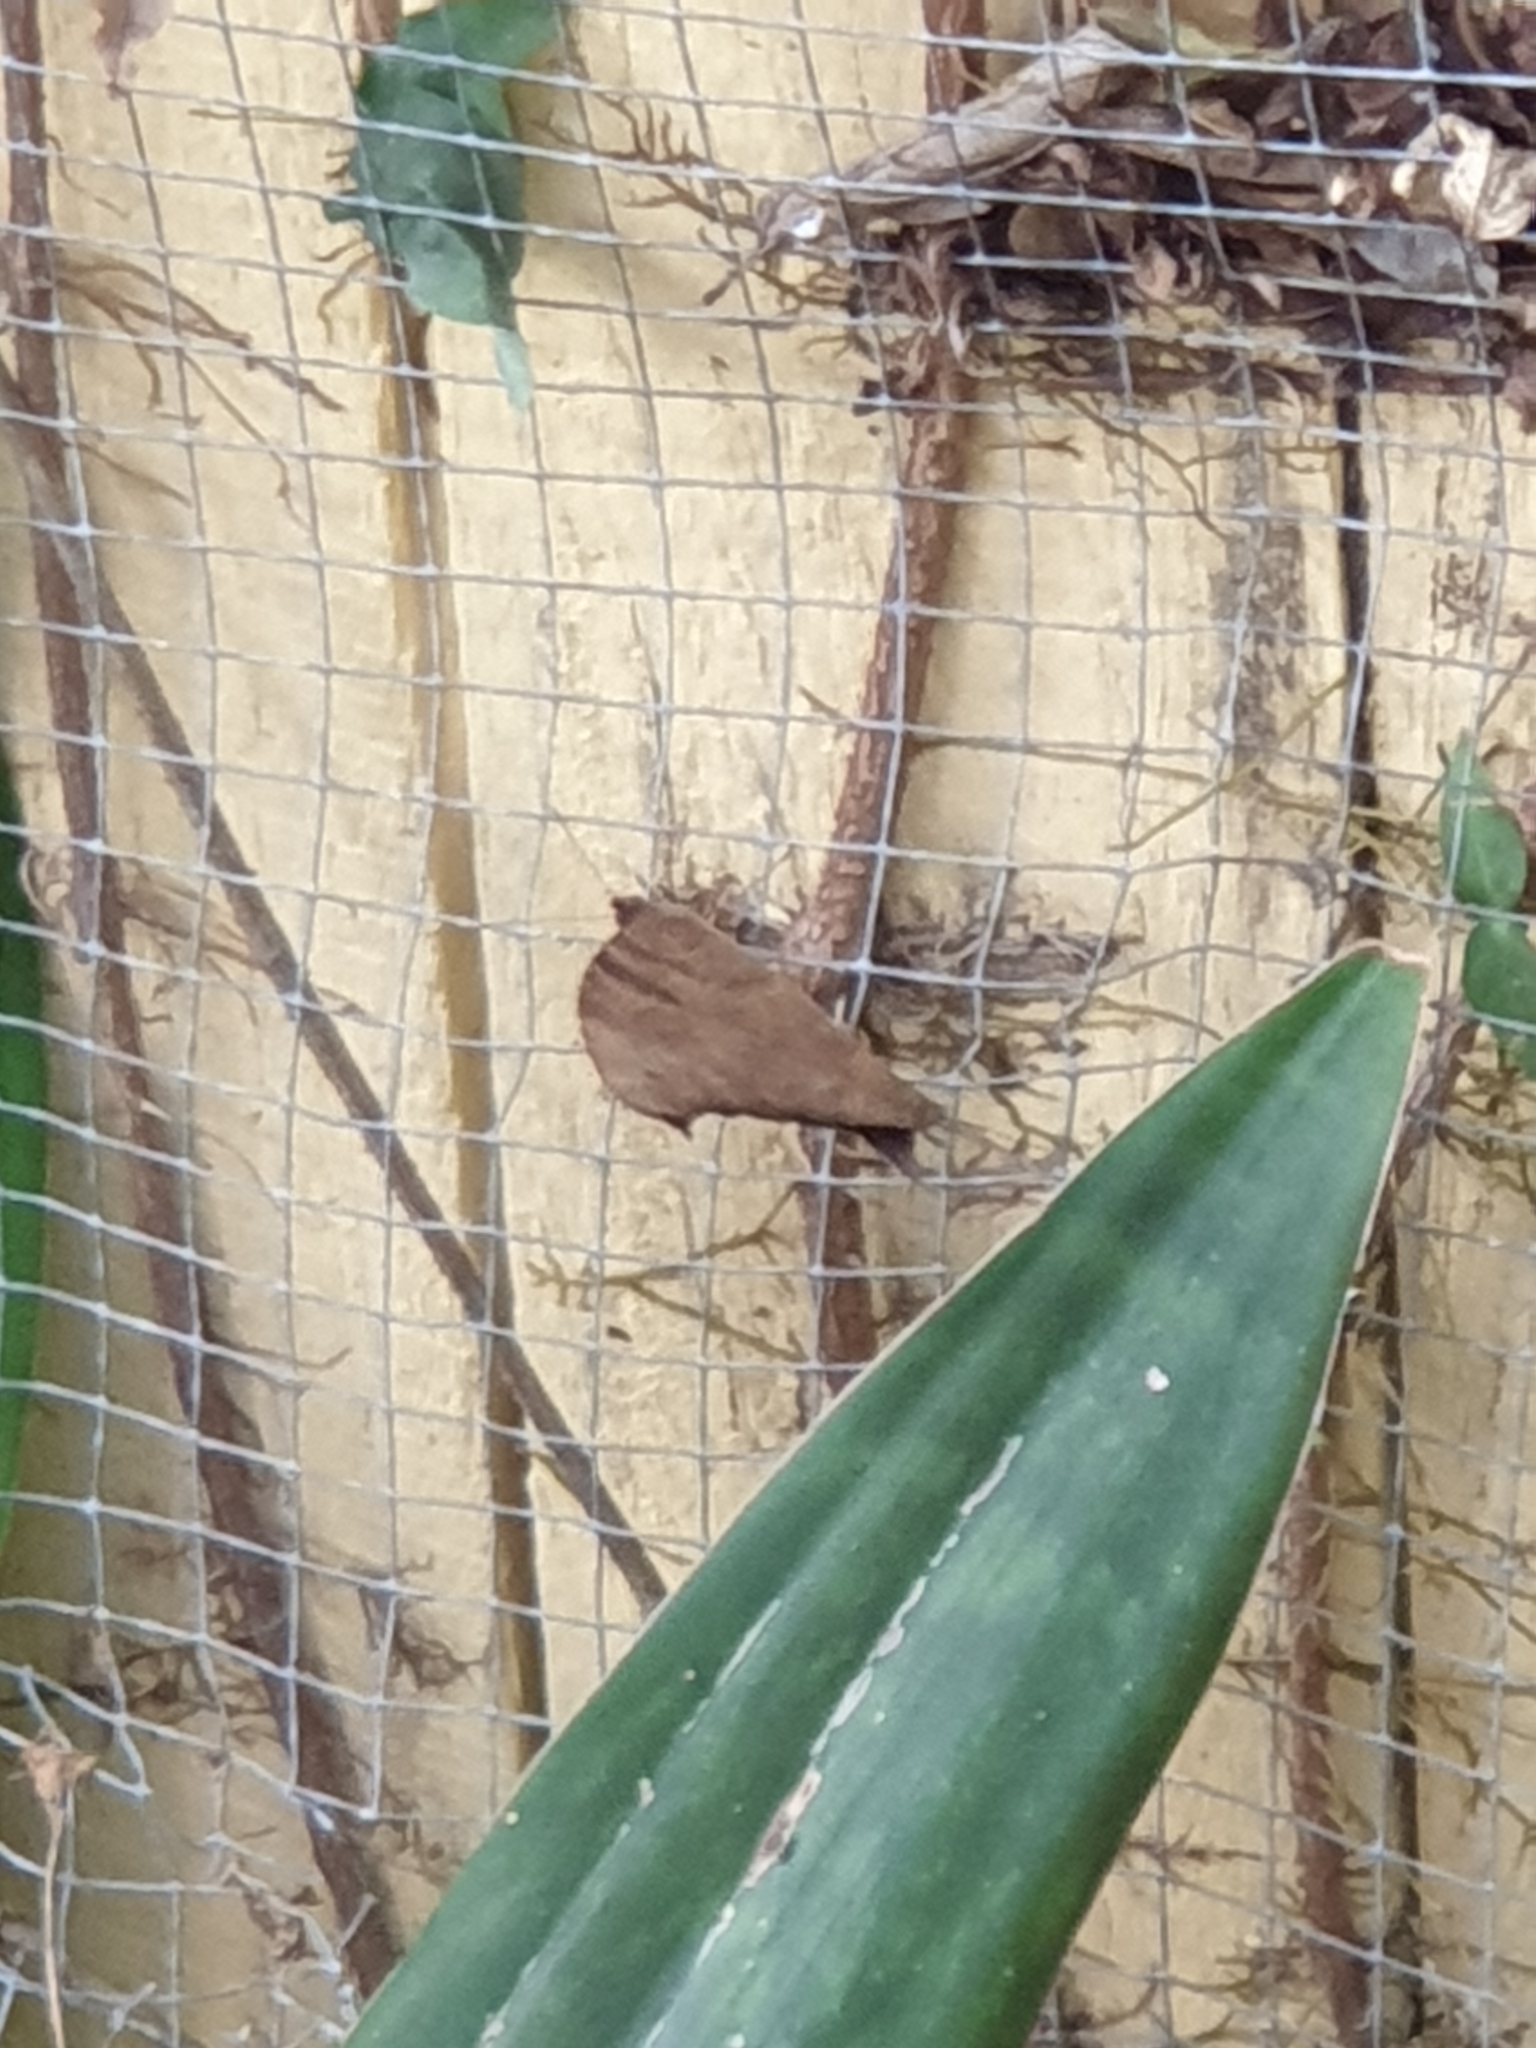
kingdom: Animalia
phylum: Arthropoda
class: Insecta
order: Lepidoptera
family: Nymphalidae
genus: Melanitis
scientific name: Melanitis leda
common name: Twilight brown
